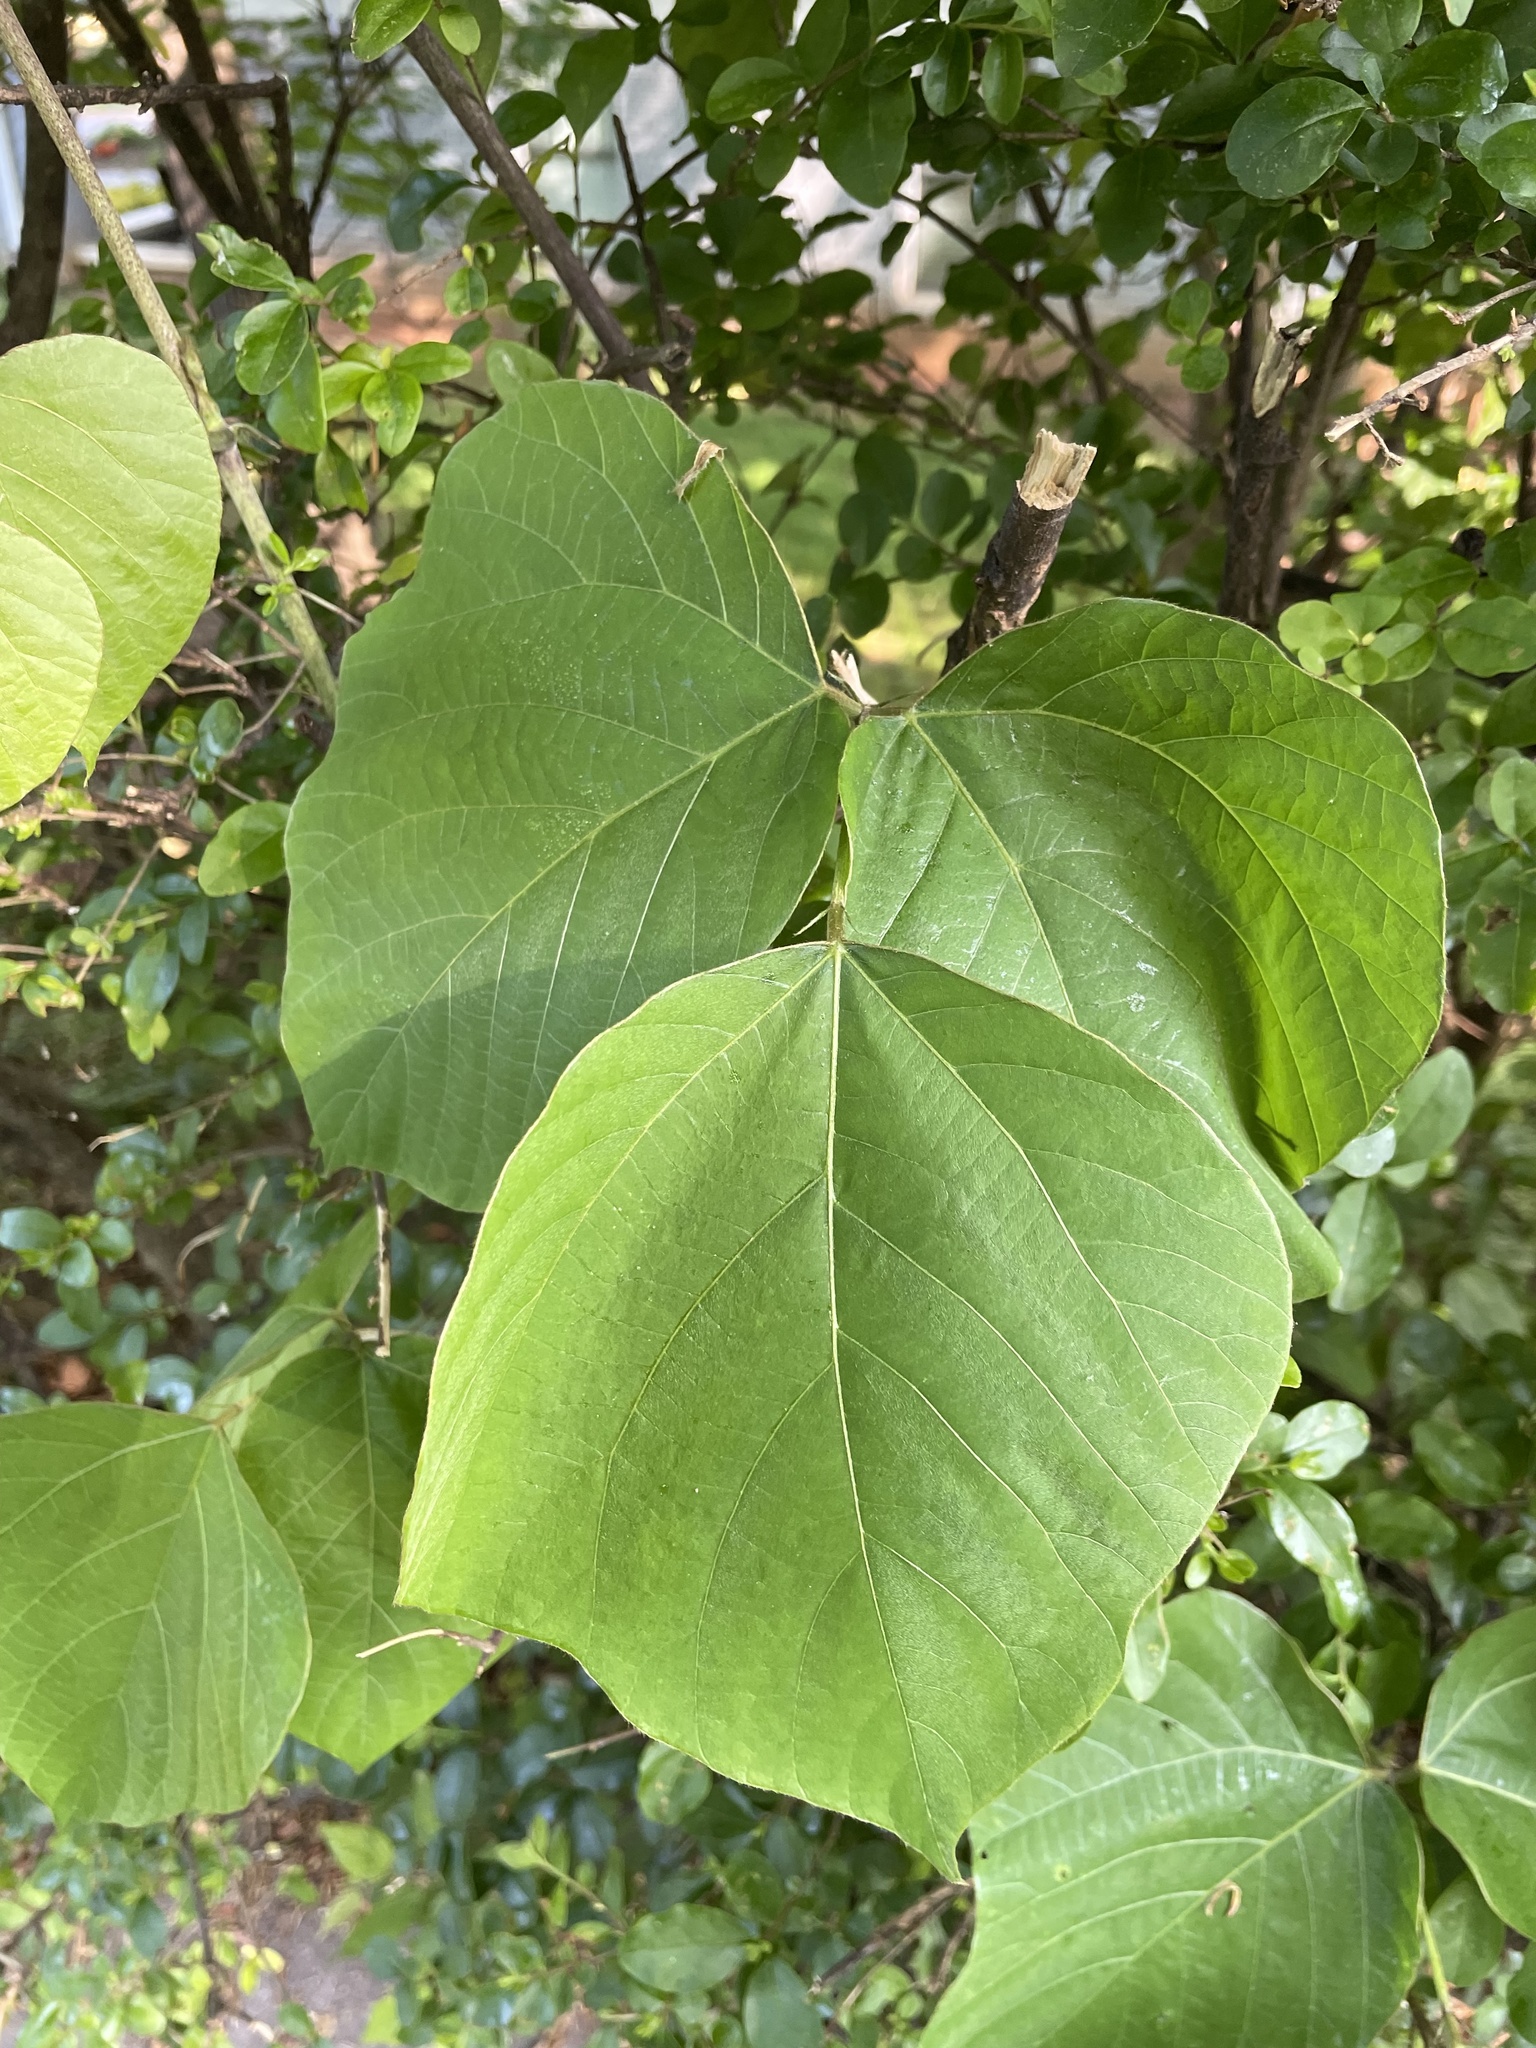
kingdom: Plantae
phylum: Tracheophyta
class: Magnoliopsida
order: Fabales
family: Fabaceae
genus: Pueraria
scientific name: Pueraria montana
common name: Kudzu
